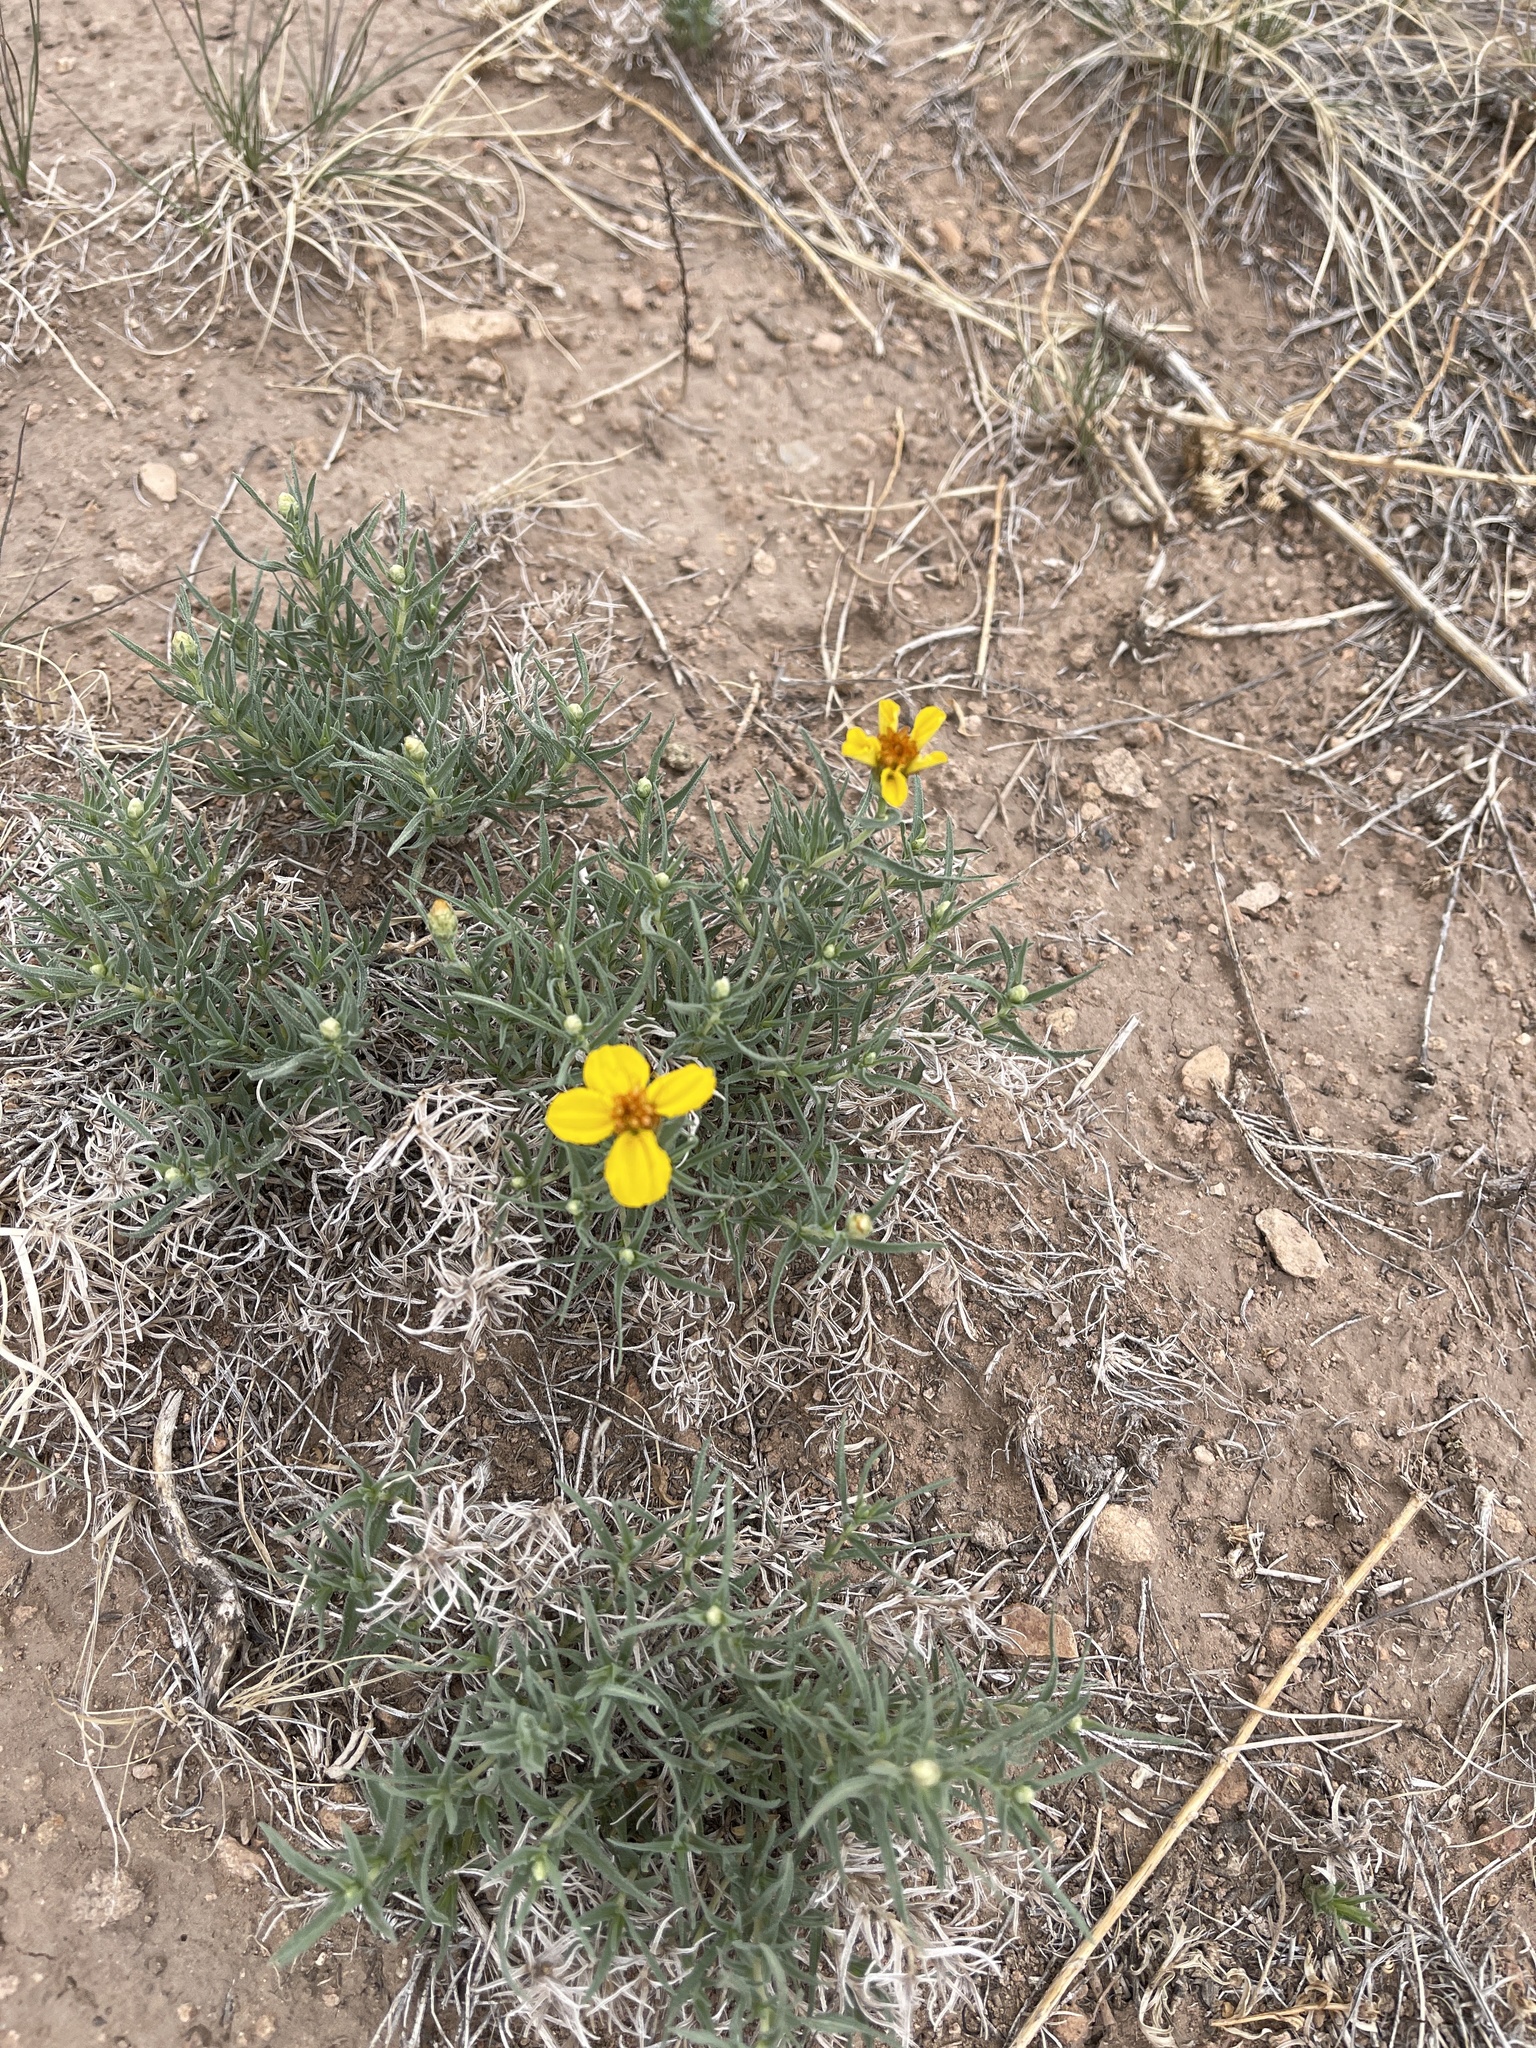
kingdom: Plantae
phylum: Tracheophyta
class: Magnoliopsida
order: Asterales
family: Asteraceae
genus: Zinnia
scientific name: Zinnia grandiflora
